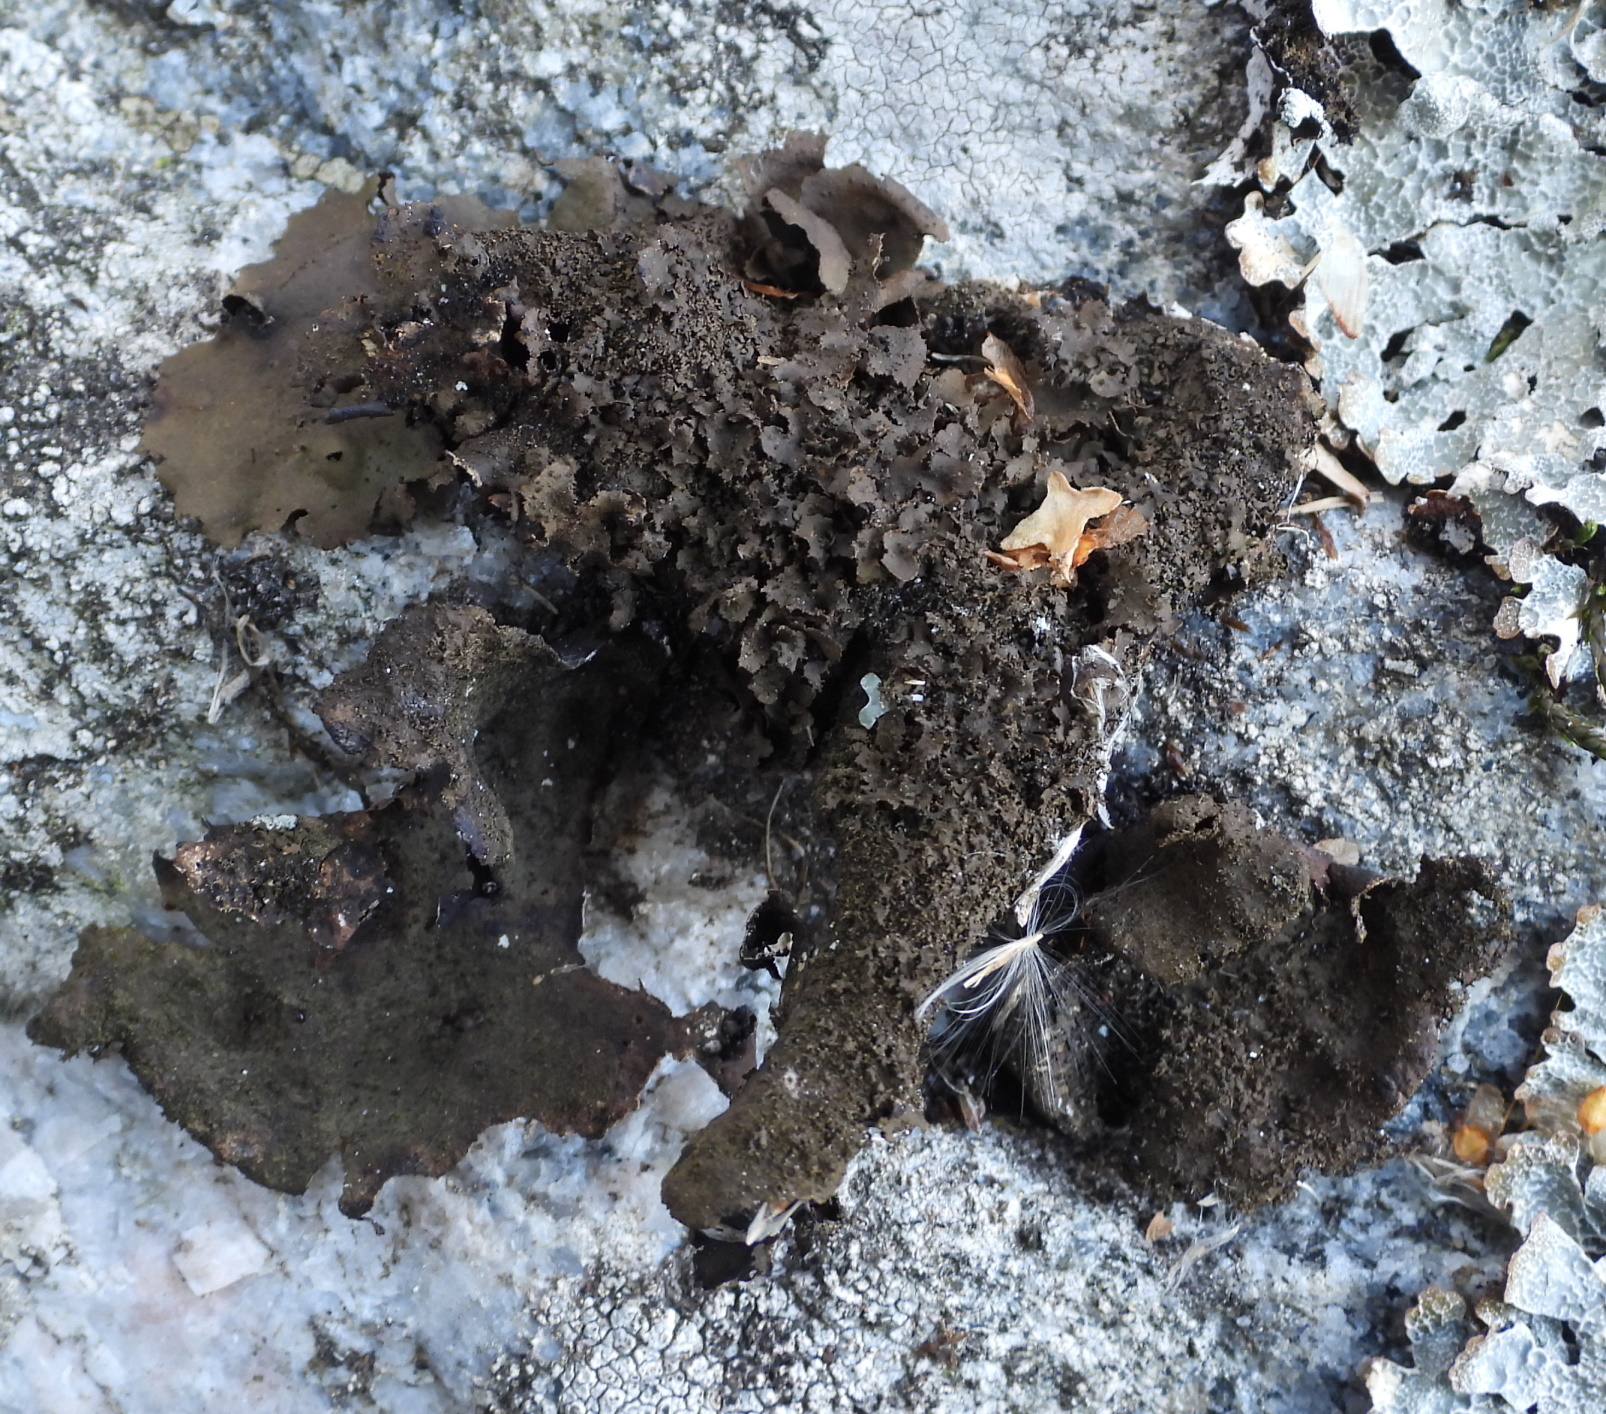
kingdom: Fungi
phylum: Ascomycota
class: Lecanoromycetes
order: Umbilicariales
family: Umbilicariaceae
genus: Umbilicaria
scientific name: Umbilicaria deusta
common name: Peppered rock tripe
